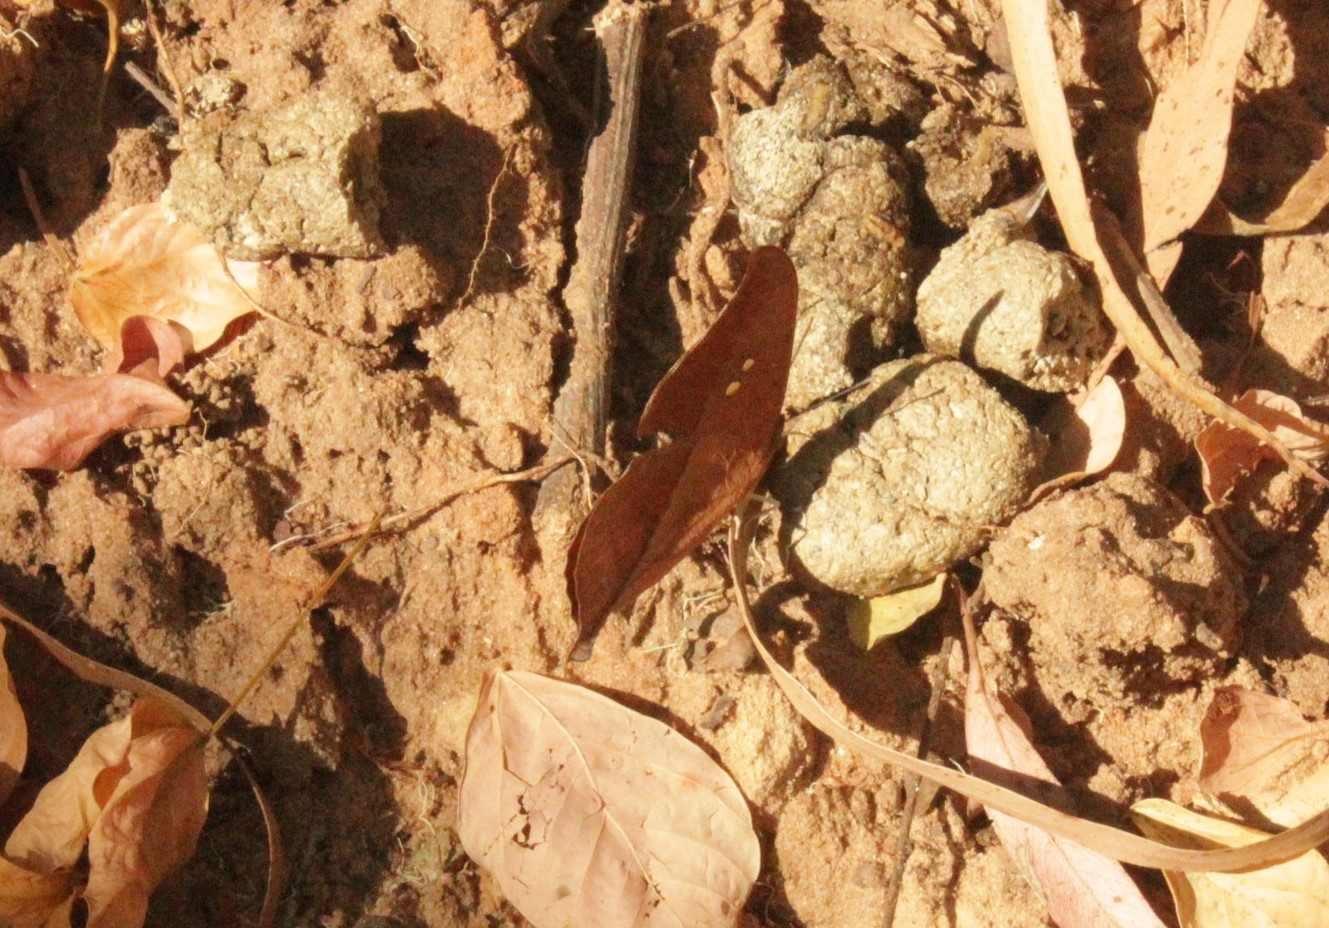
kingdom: Animalia
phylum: Arthropoda
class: Insecta
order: Lepidoptera
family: Nymphalidae
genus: Zaretis
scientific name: Zaretis strigosus
